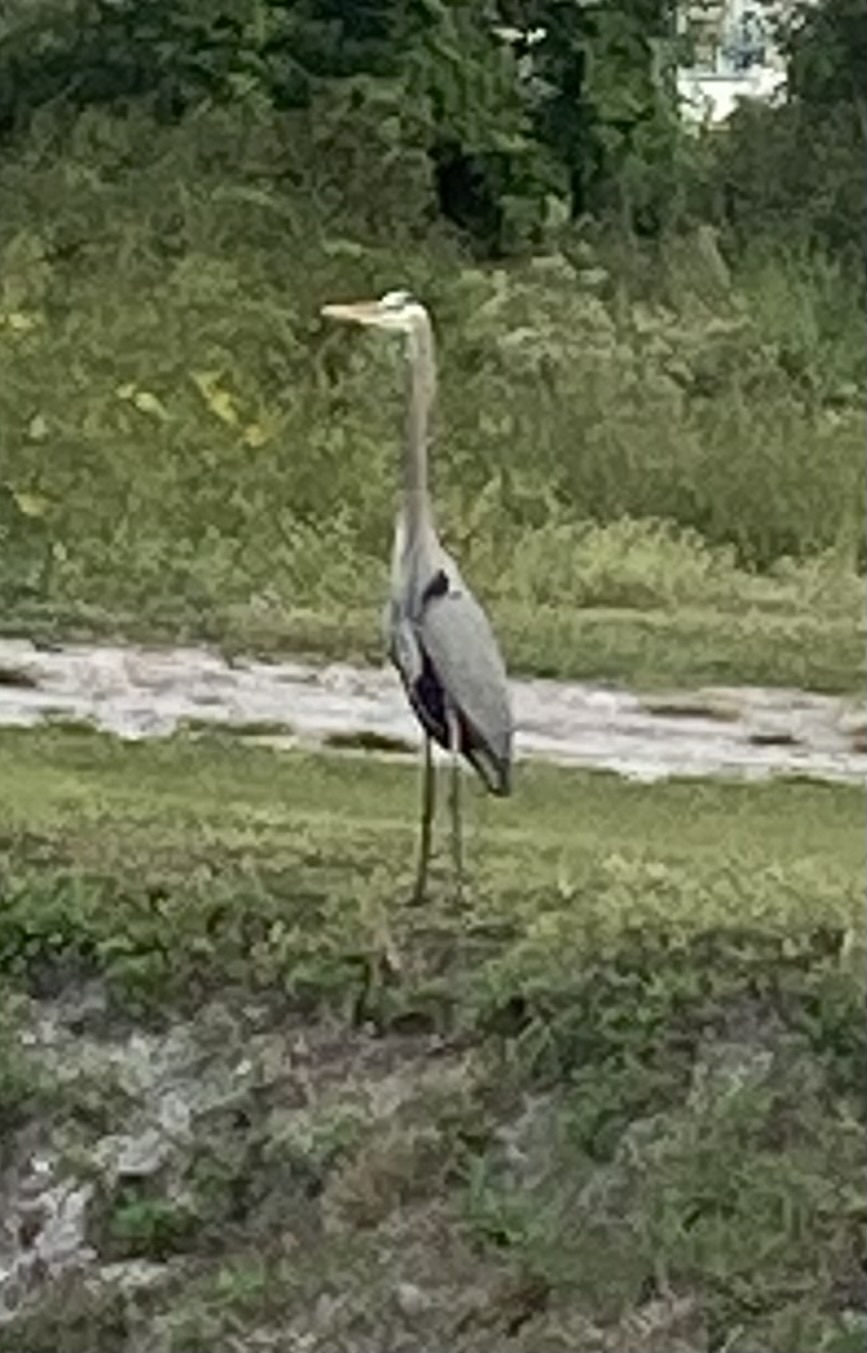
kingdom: Animalia
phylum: Chordata
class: Aves
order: Pelecaniformes
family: Ardeidae
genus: Ardea
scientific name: Ardea herodias
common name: Great blue heron
